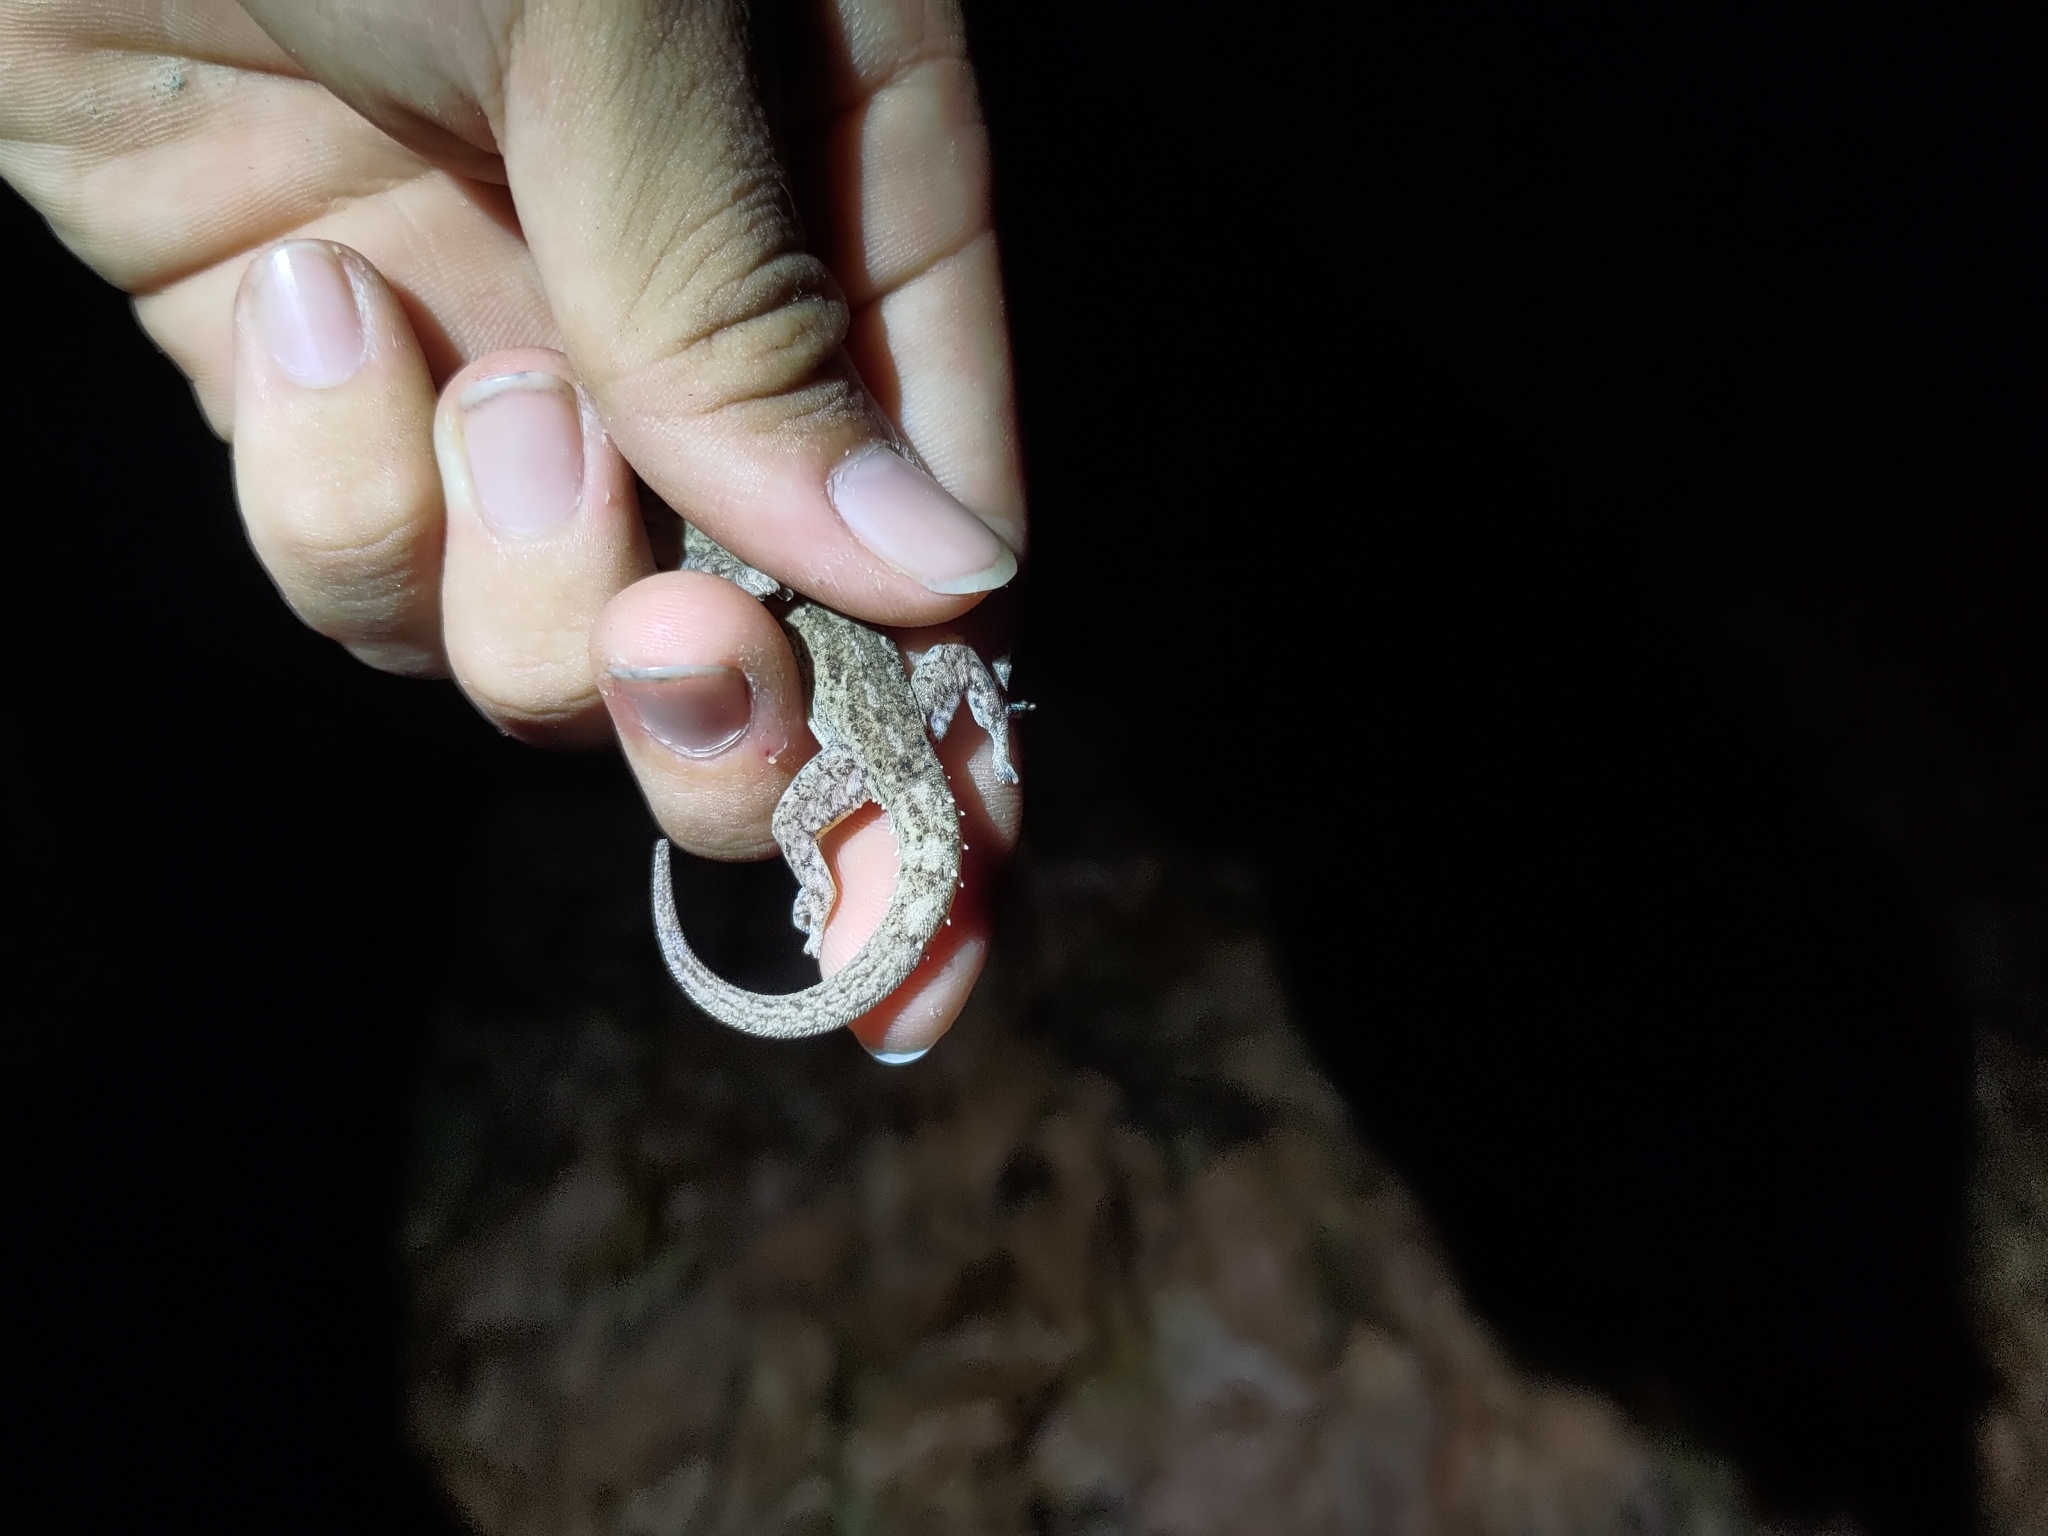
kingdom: Animalia
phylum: Chordata
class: Squamata
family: Gekkonidae
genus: Hemidactylus
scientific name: Hemidactylus frenatus
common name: Common house gecko
